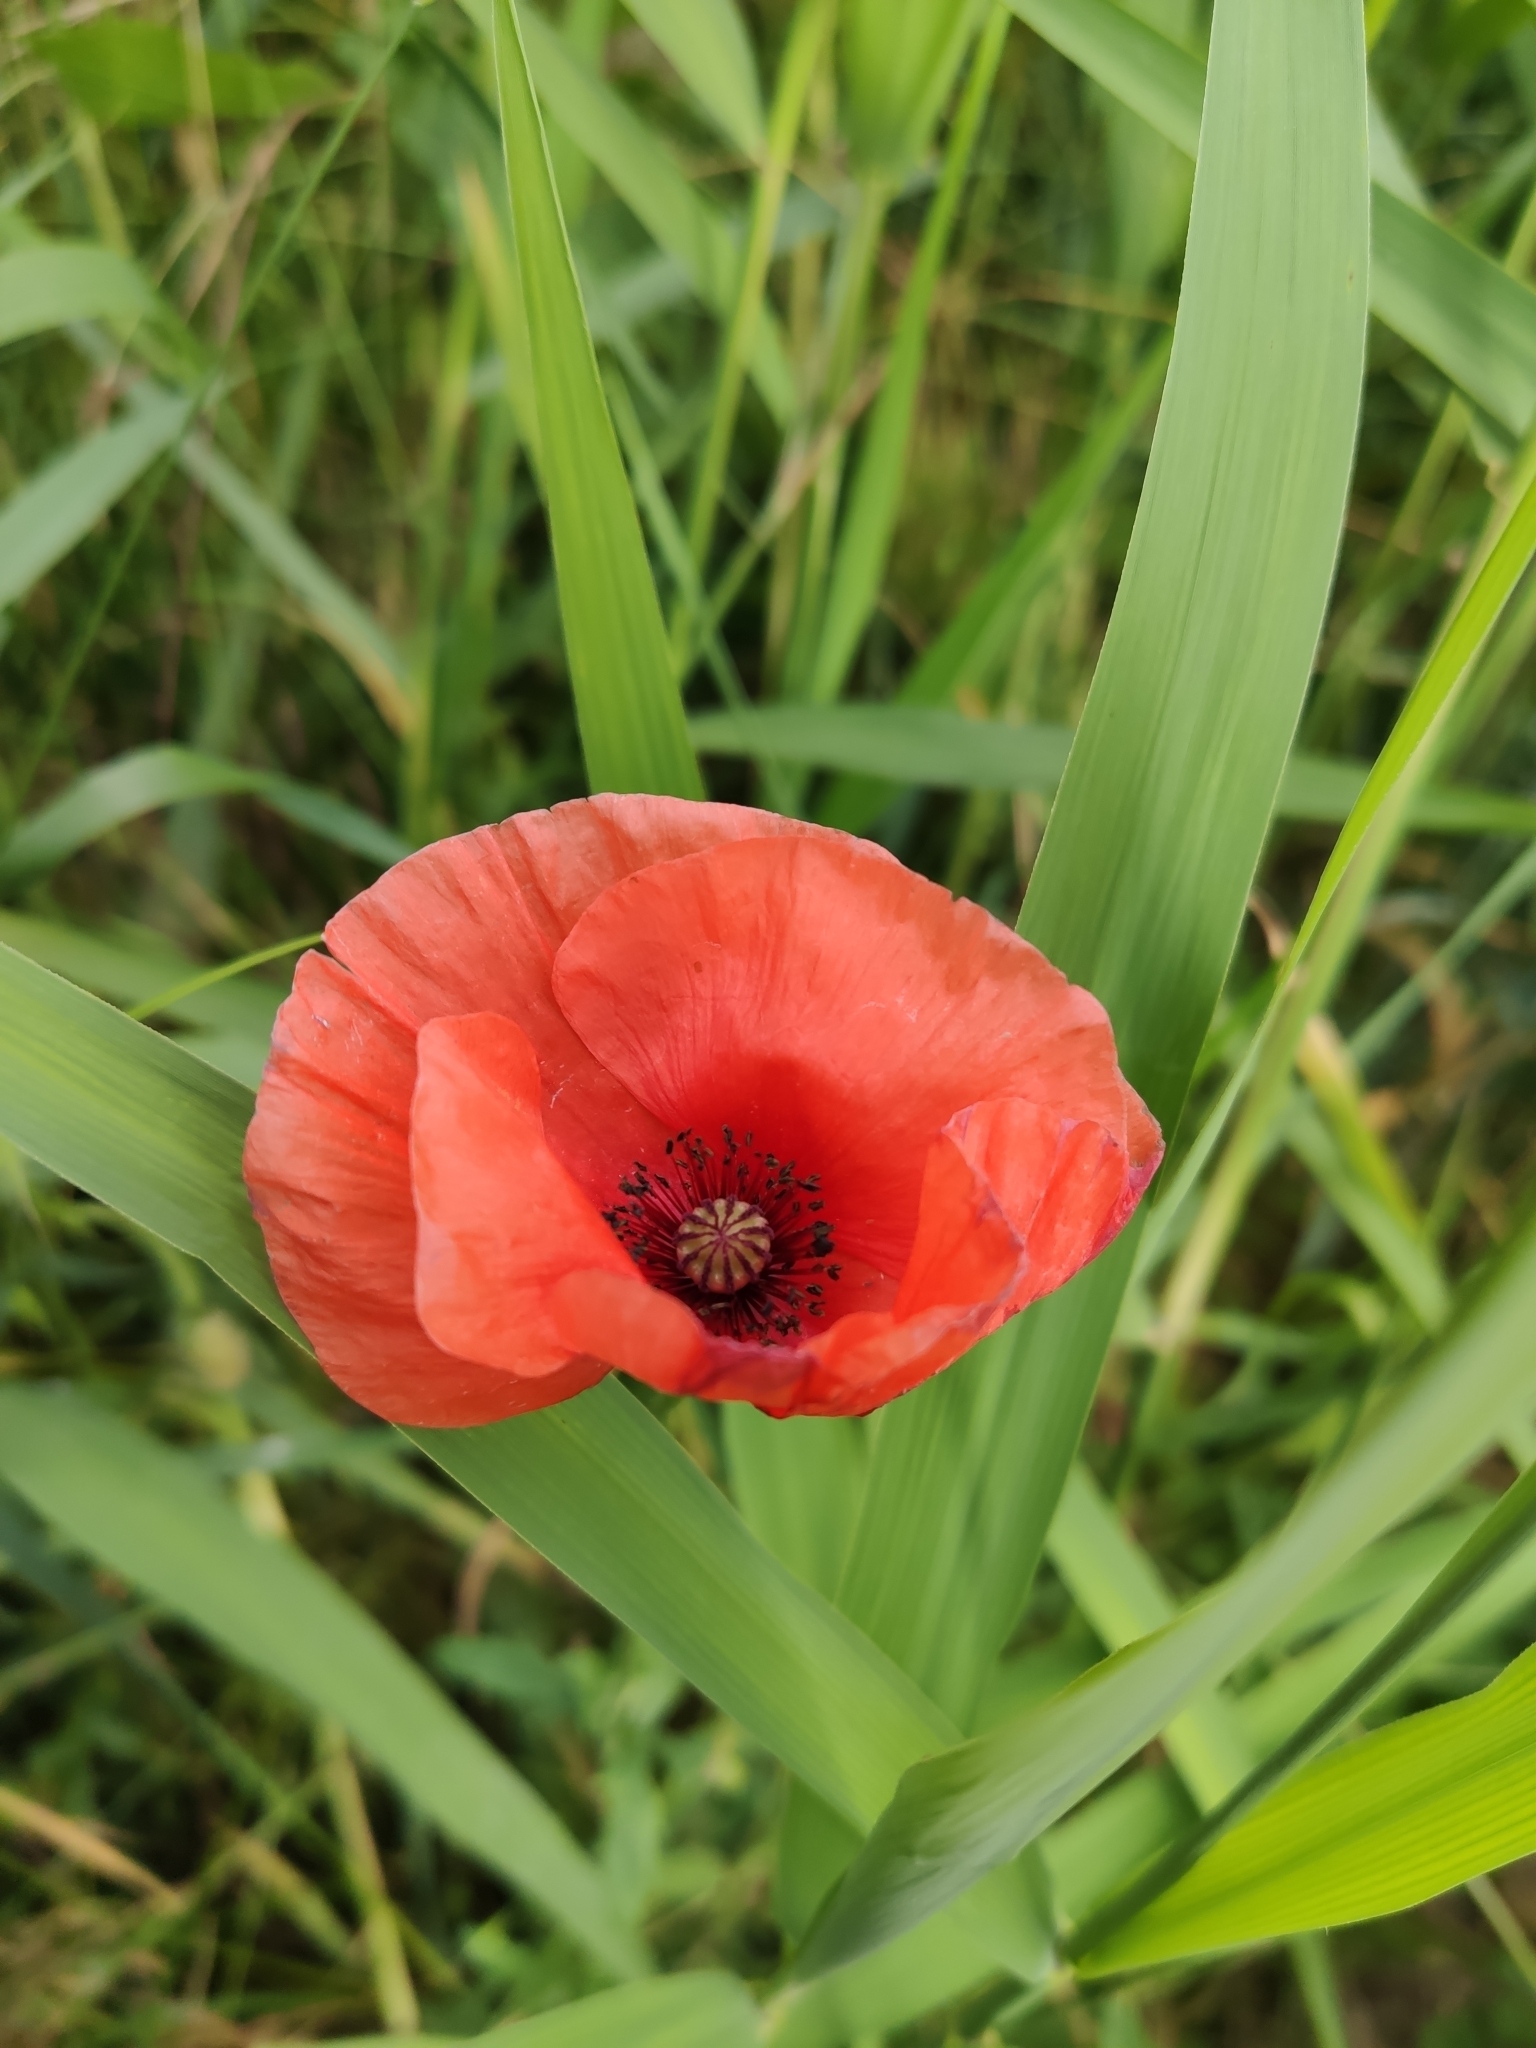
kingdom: Plantae
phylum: Tracheophyta
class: Magnoliopsida
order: Ranunculales
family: Papaveraceae
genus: Papaver
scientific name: Papaver rhoeas
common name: Corn poppy
